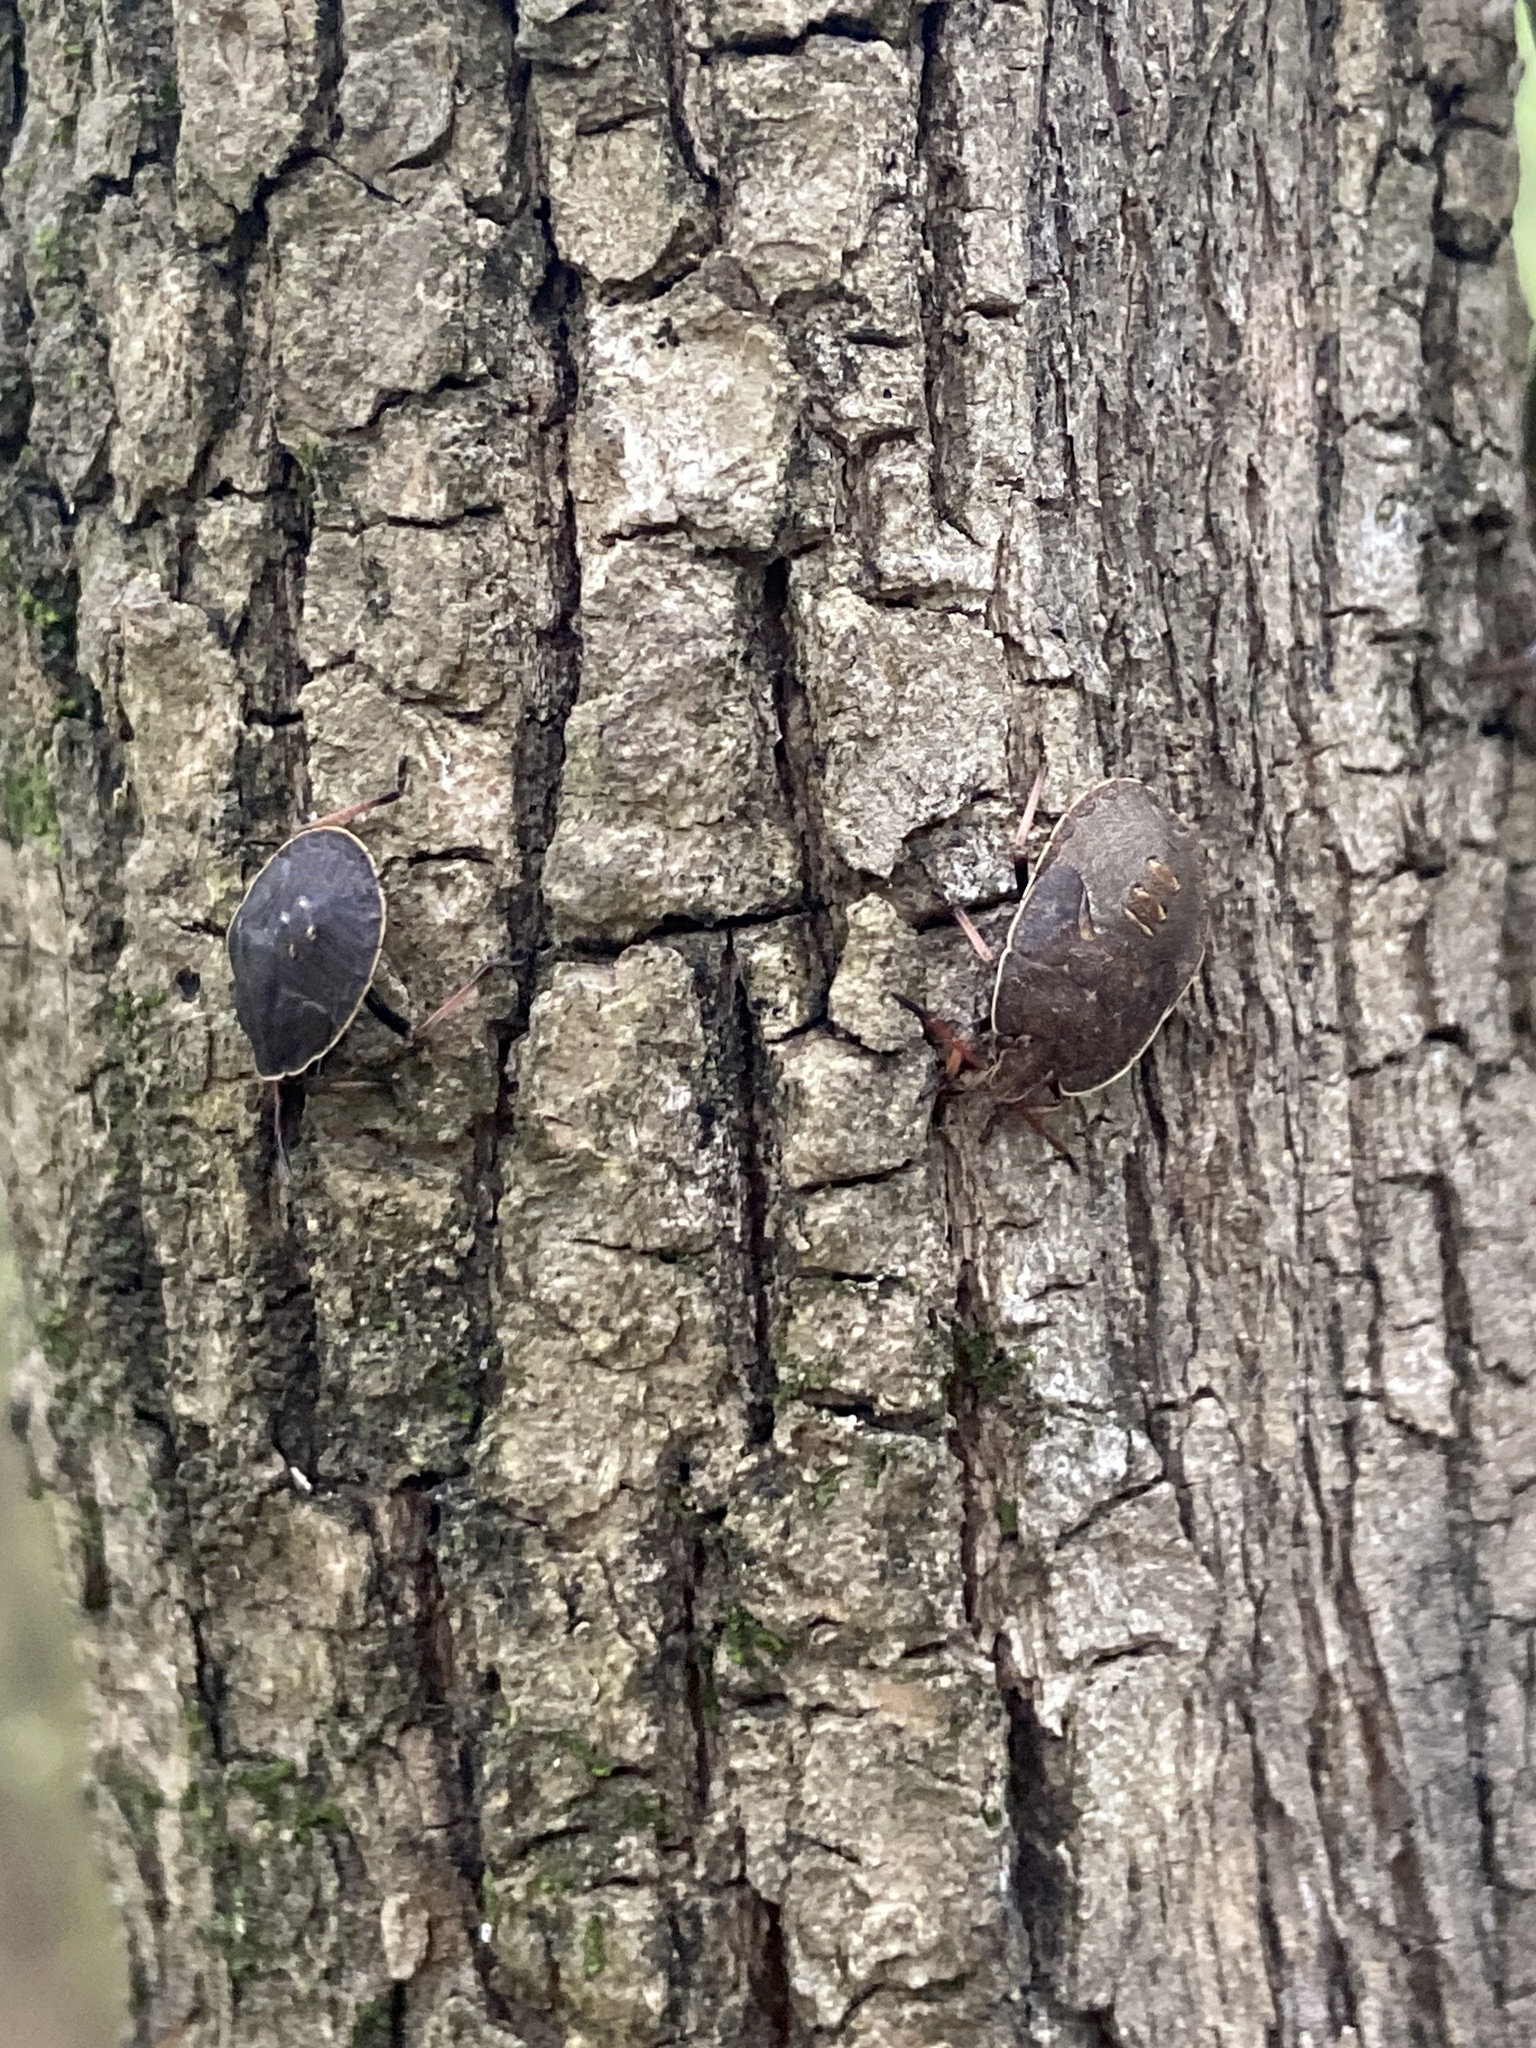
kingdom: Animalia
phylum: Arthropoda
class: Insecta
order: Hemiptera
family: Pentatomidae
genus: Menecles
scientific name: Menecles insertus
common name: Elf shoe stink bug
